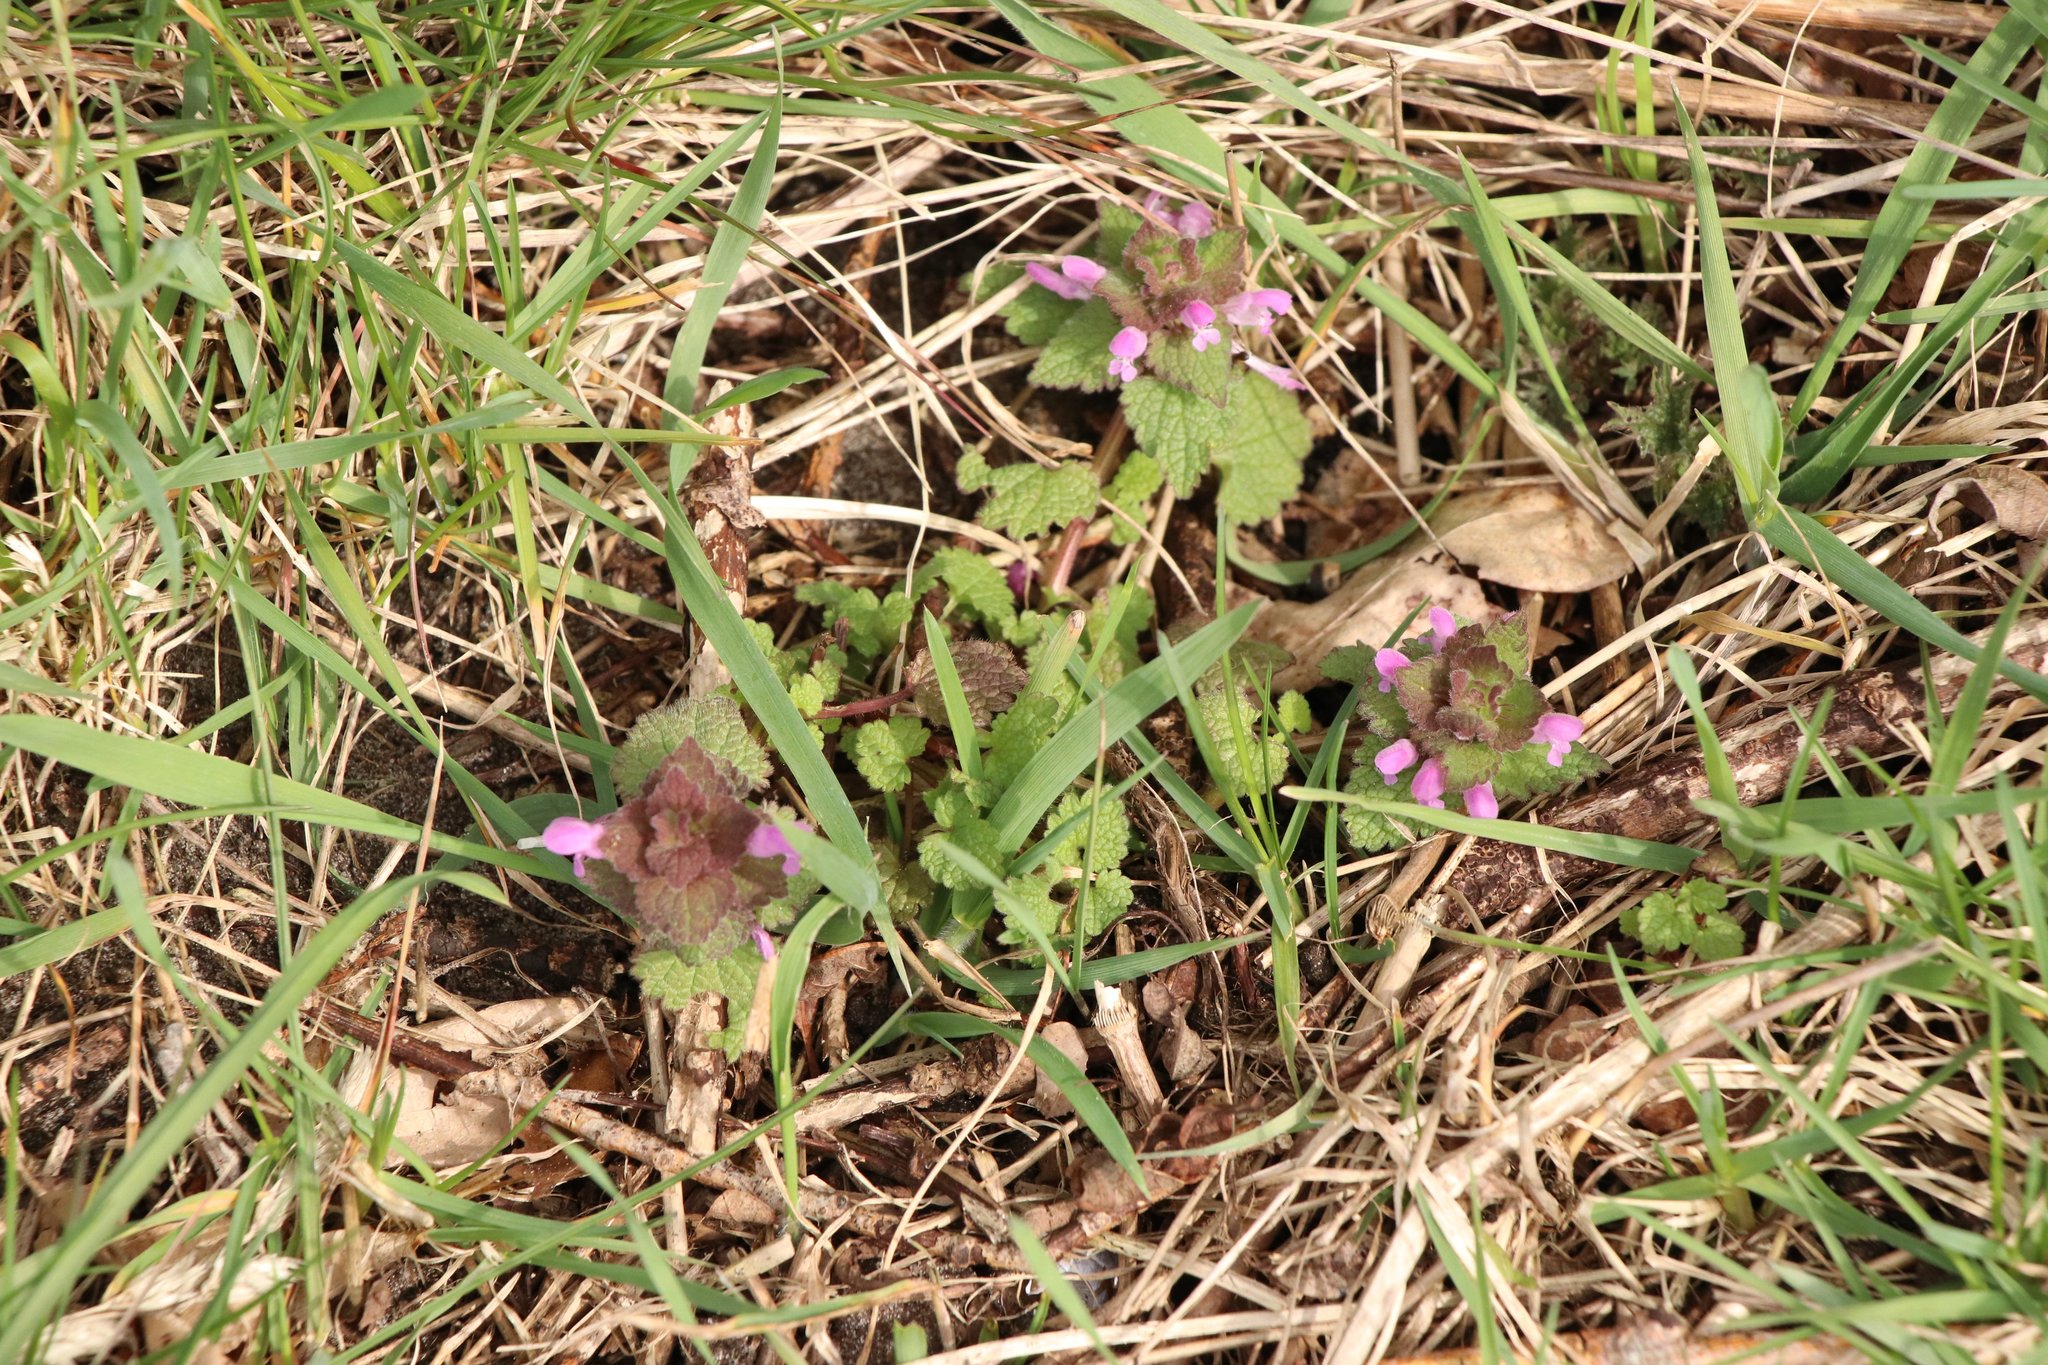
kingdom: Plantae
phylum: Tracheophyta
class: Magnoliopsida
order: Lamiales
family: Lamiaceae
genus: Lamium
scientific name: Lamium purpureum
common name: Red dead-nettle
